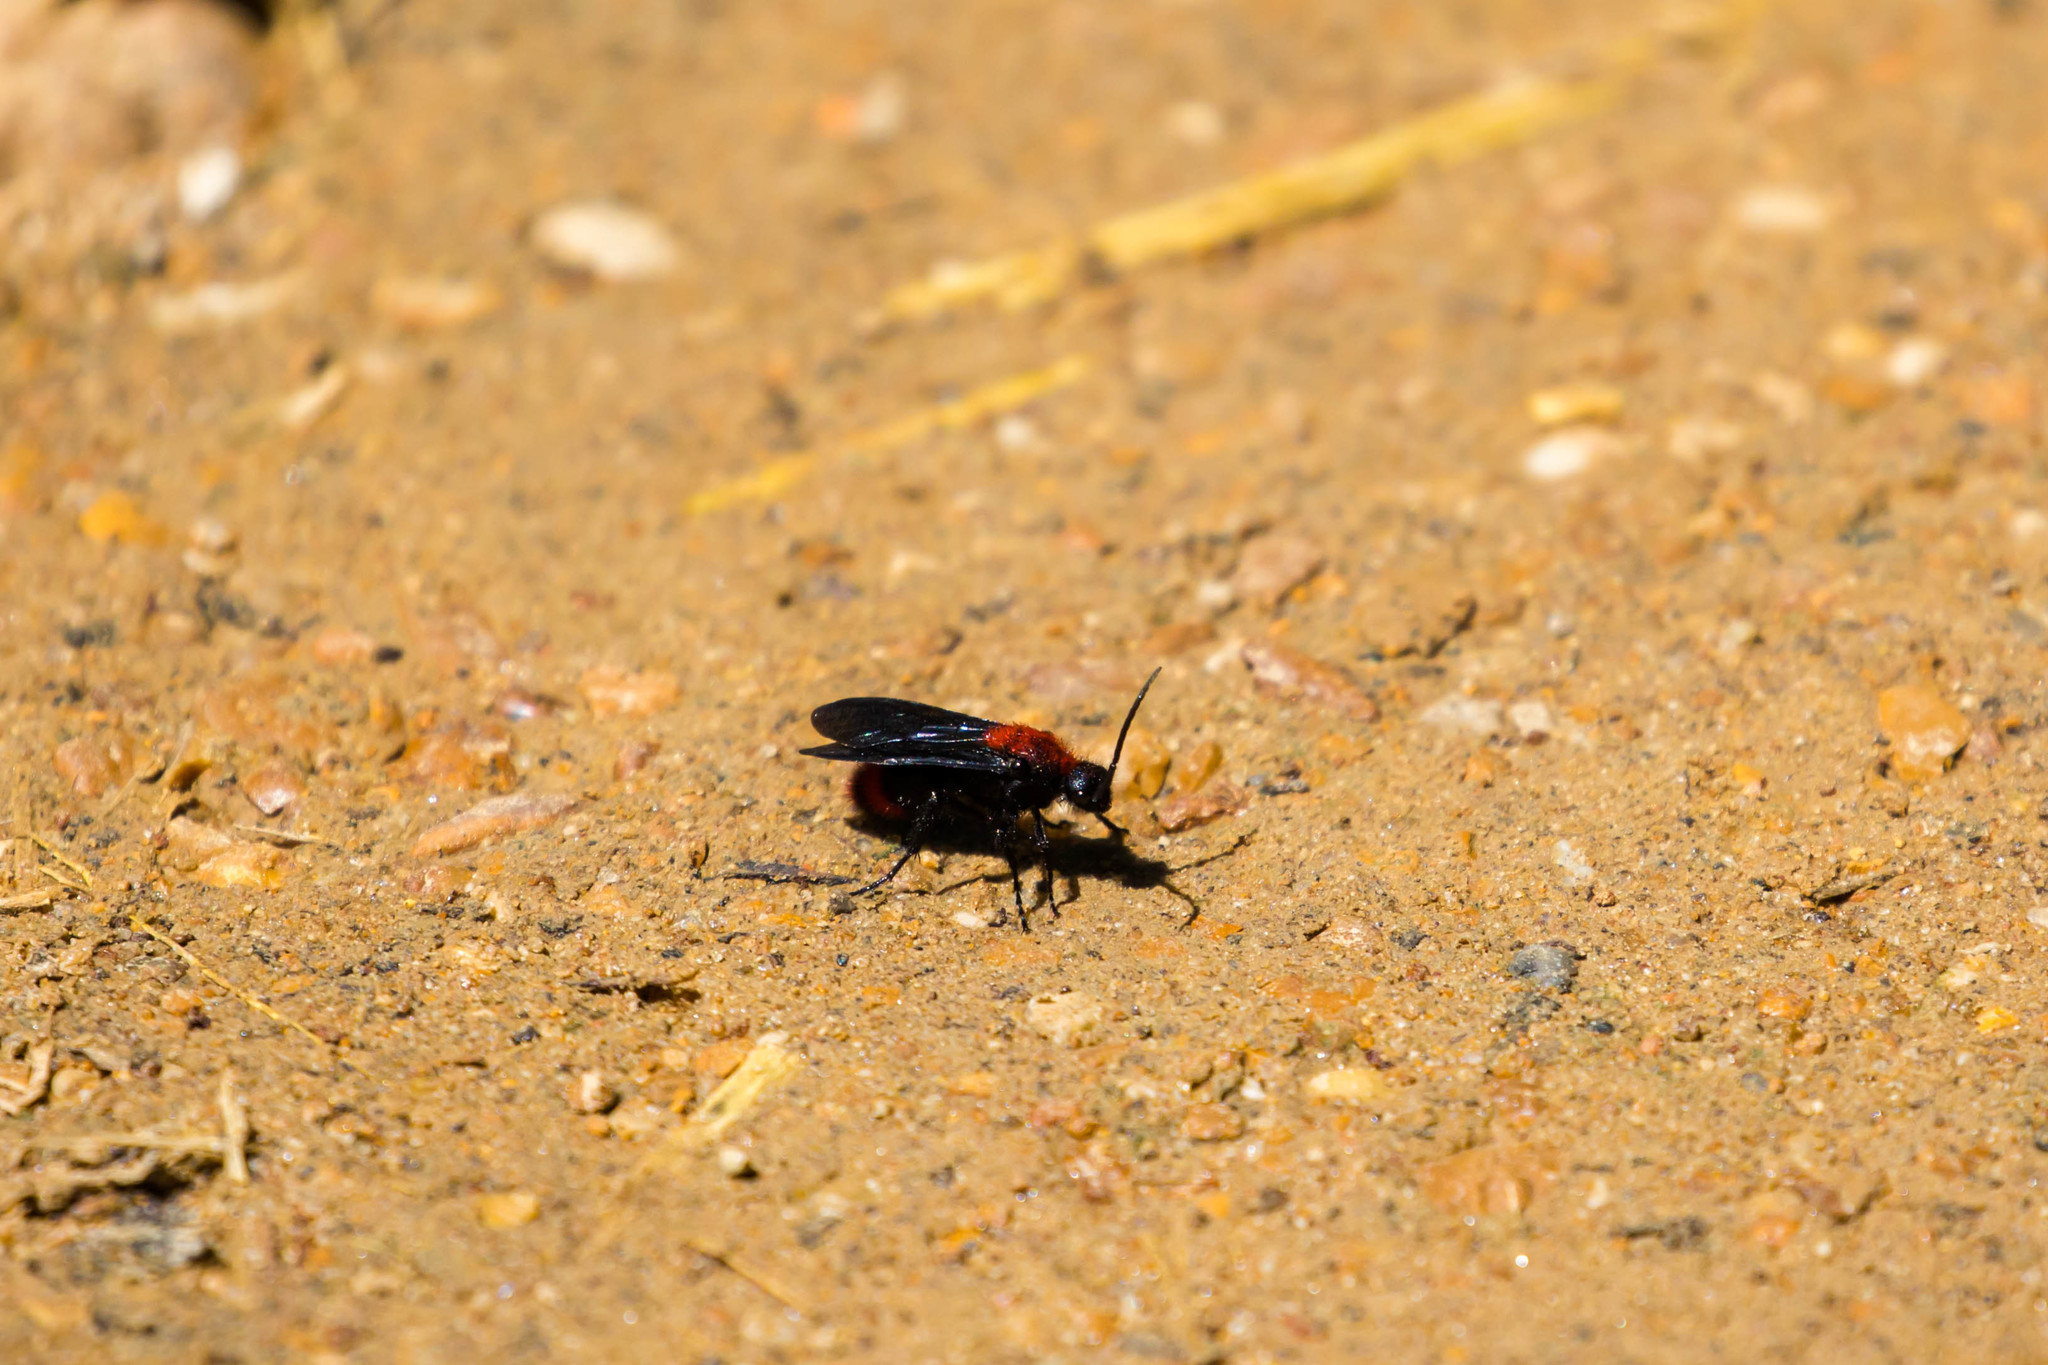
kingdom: Animalia
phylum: Arthropoda
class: Insecta
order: Hymenoptera
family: Mutillidae
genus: Dasymutilla
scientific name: Dasymutilla occidentalis
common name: Common eastern velvet ant
